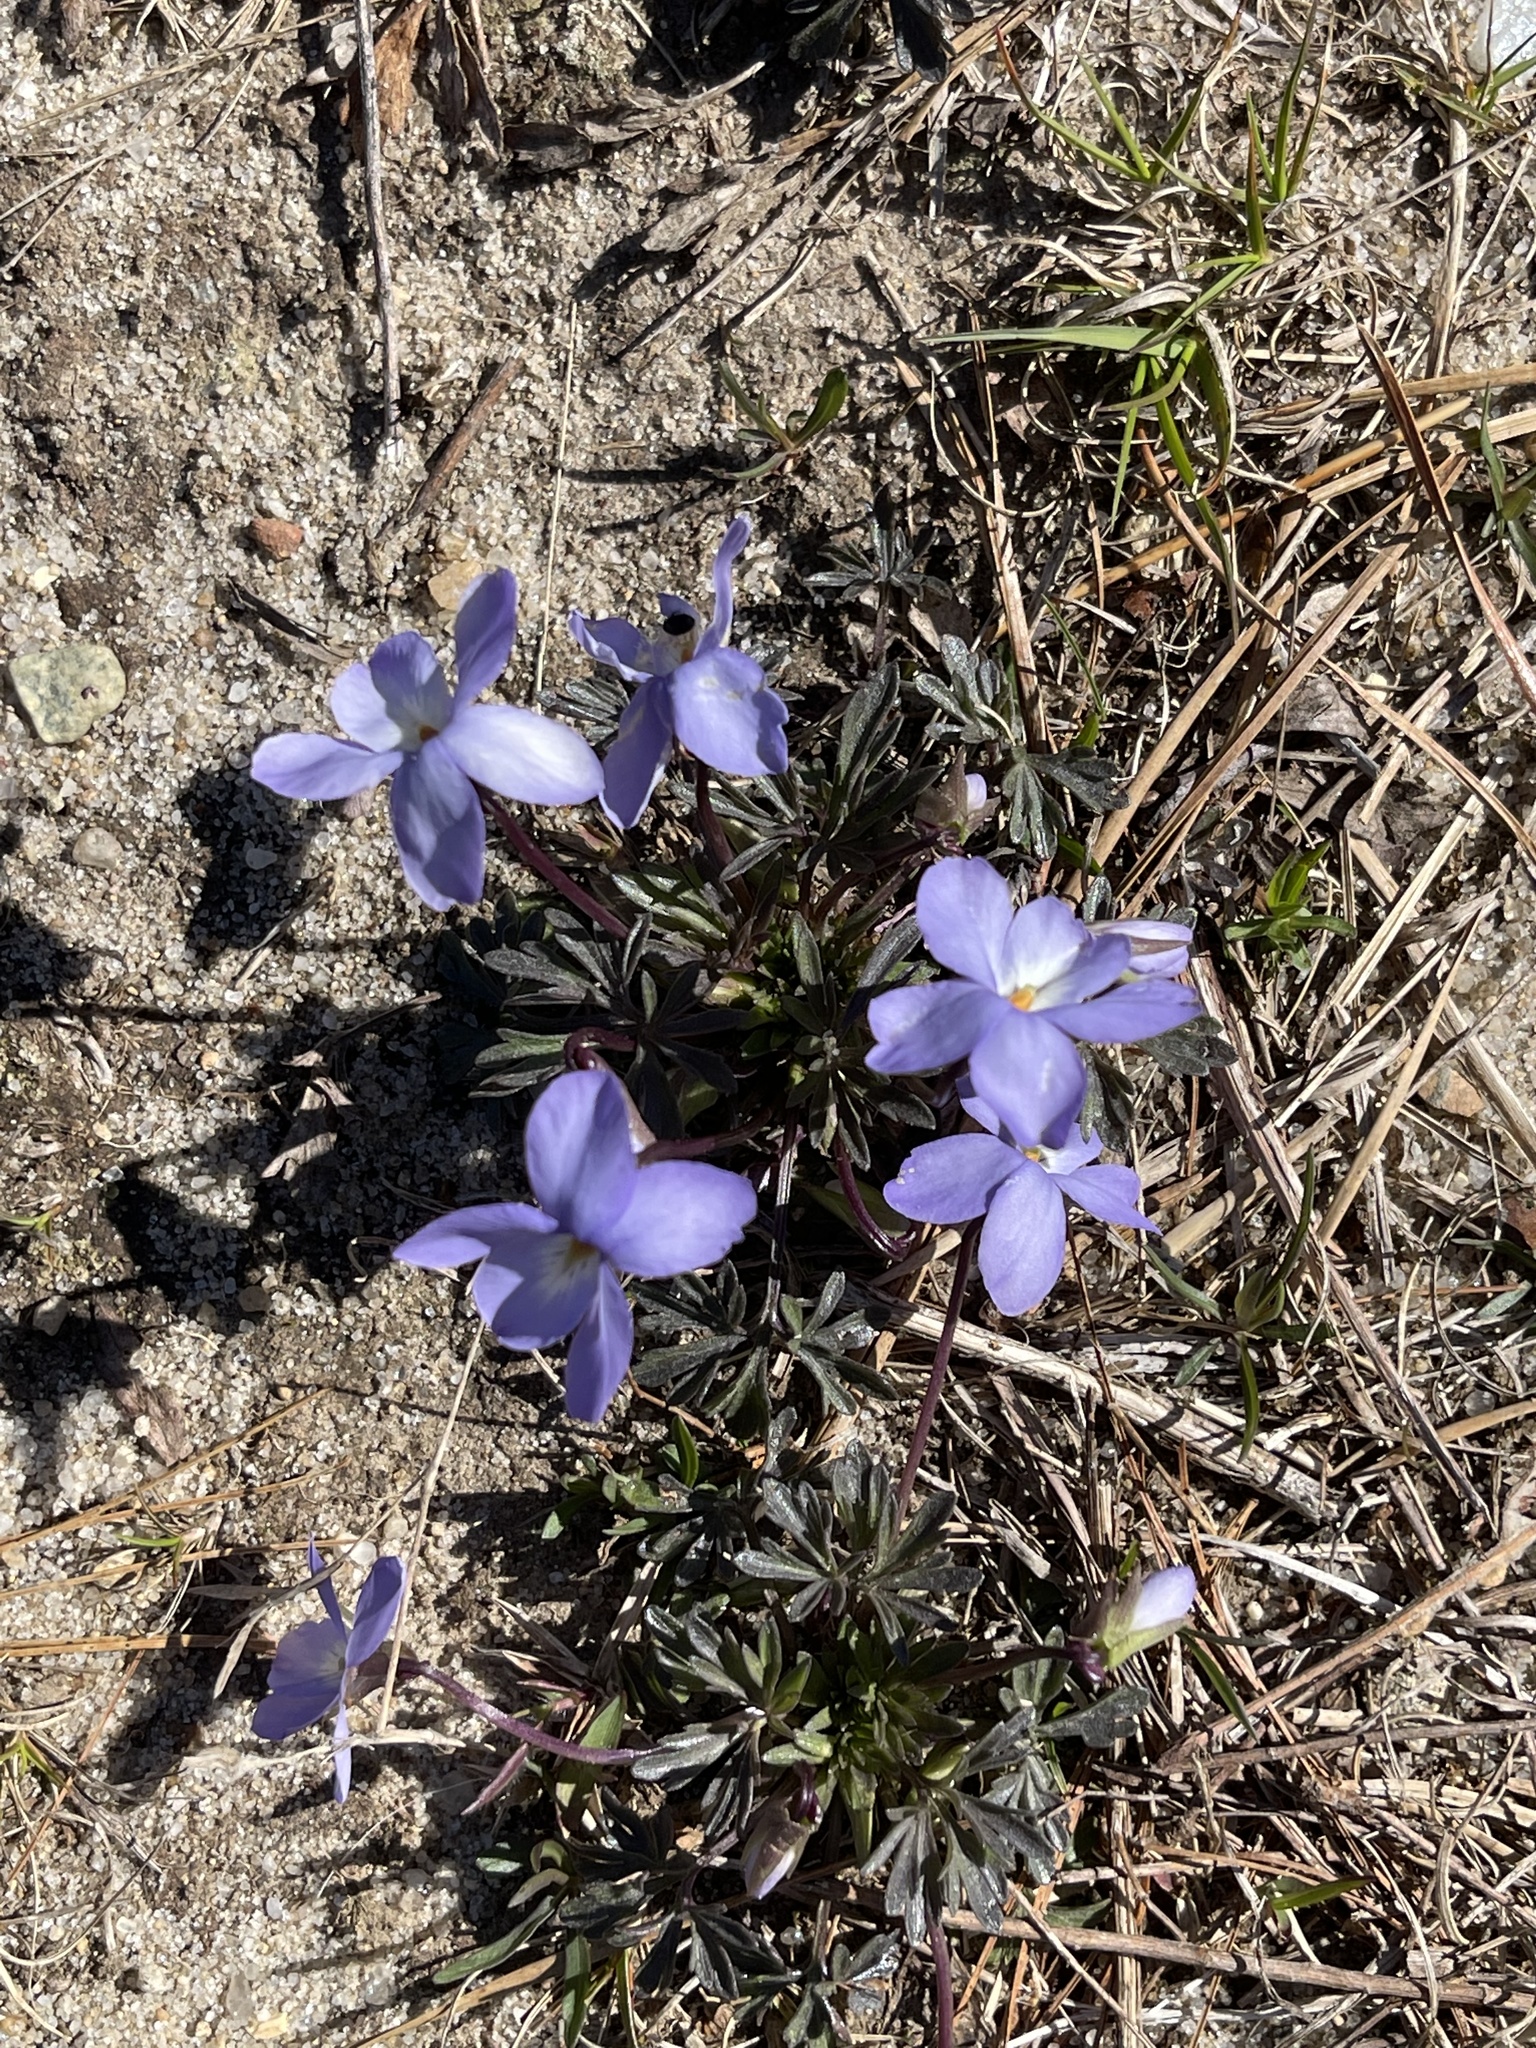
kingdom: Plantae
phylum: Tracheophyta
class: Magnoliopsida
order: Malpighiales
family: Violaceae
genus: Viola
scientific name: Viola pedata
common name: Pansy violet
